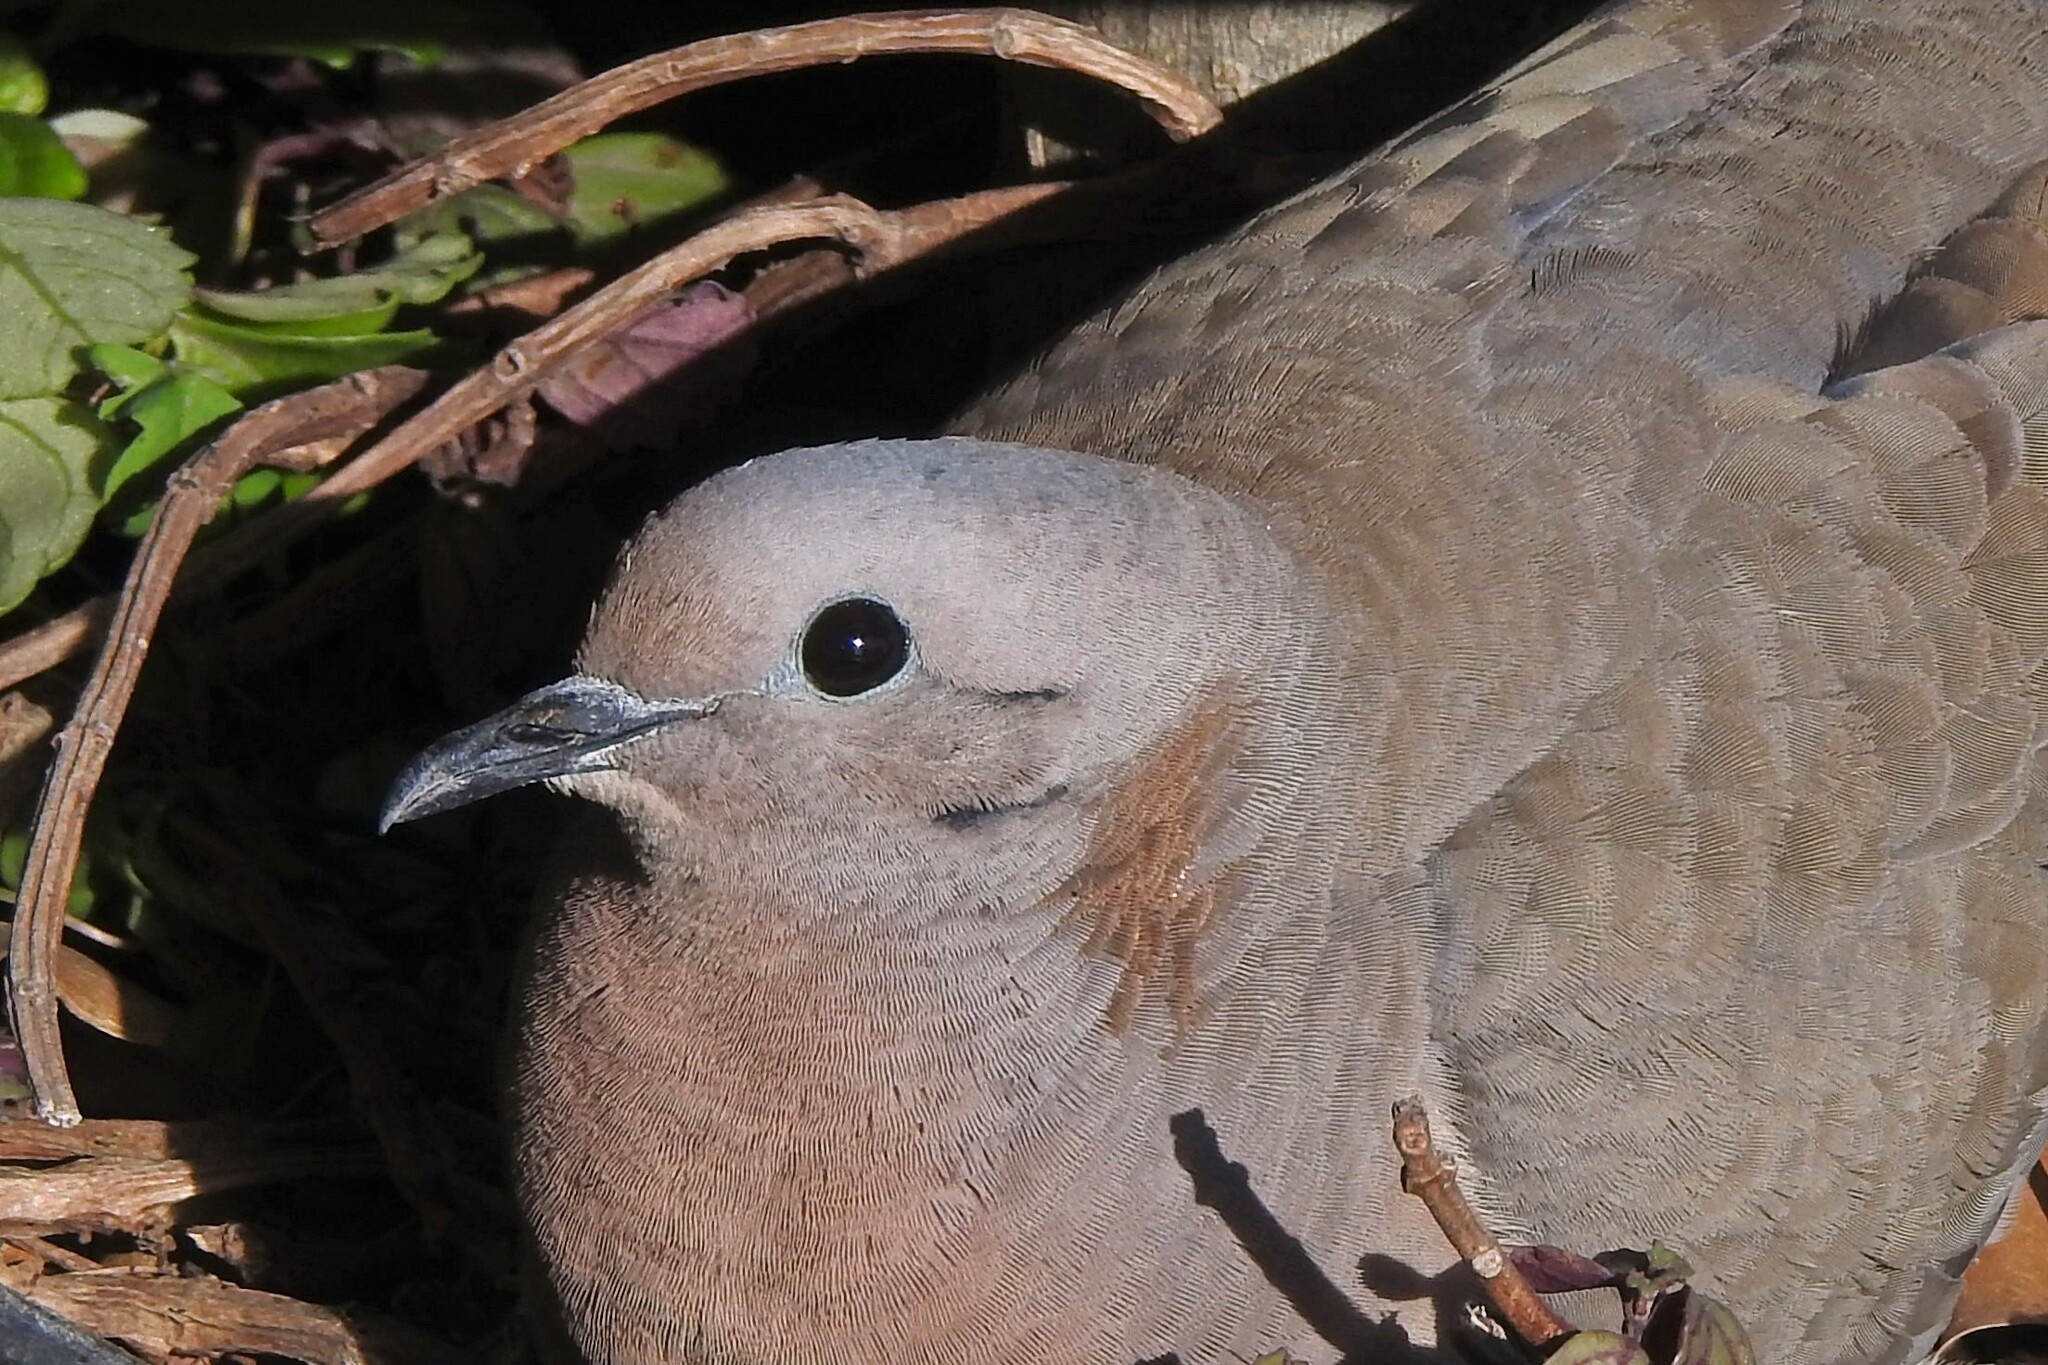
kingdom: Animalia
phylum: Chordata
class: Aves
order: Columbiformes
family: Columbidae
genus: Zenaida
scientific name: Zenaida auriculata
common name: Eared dove
